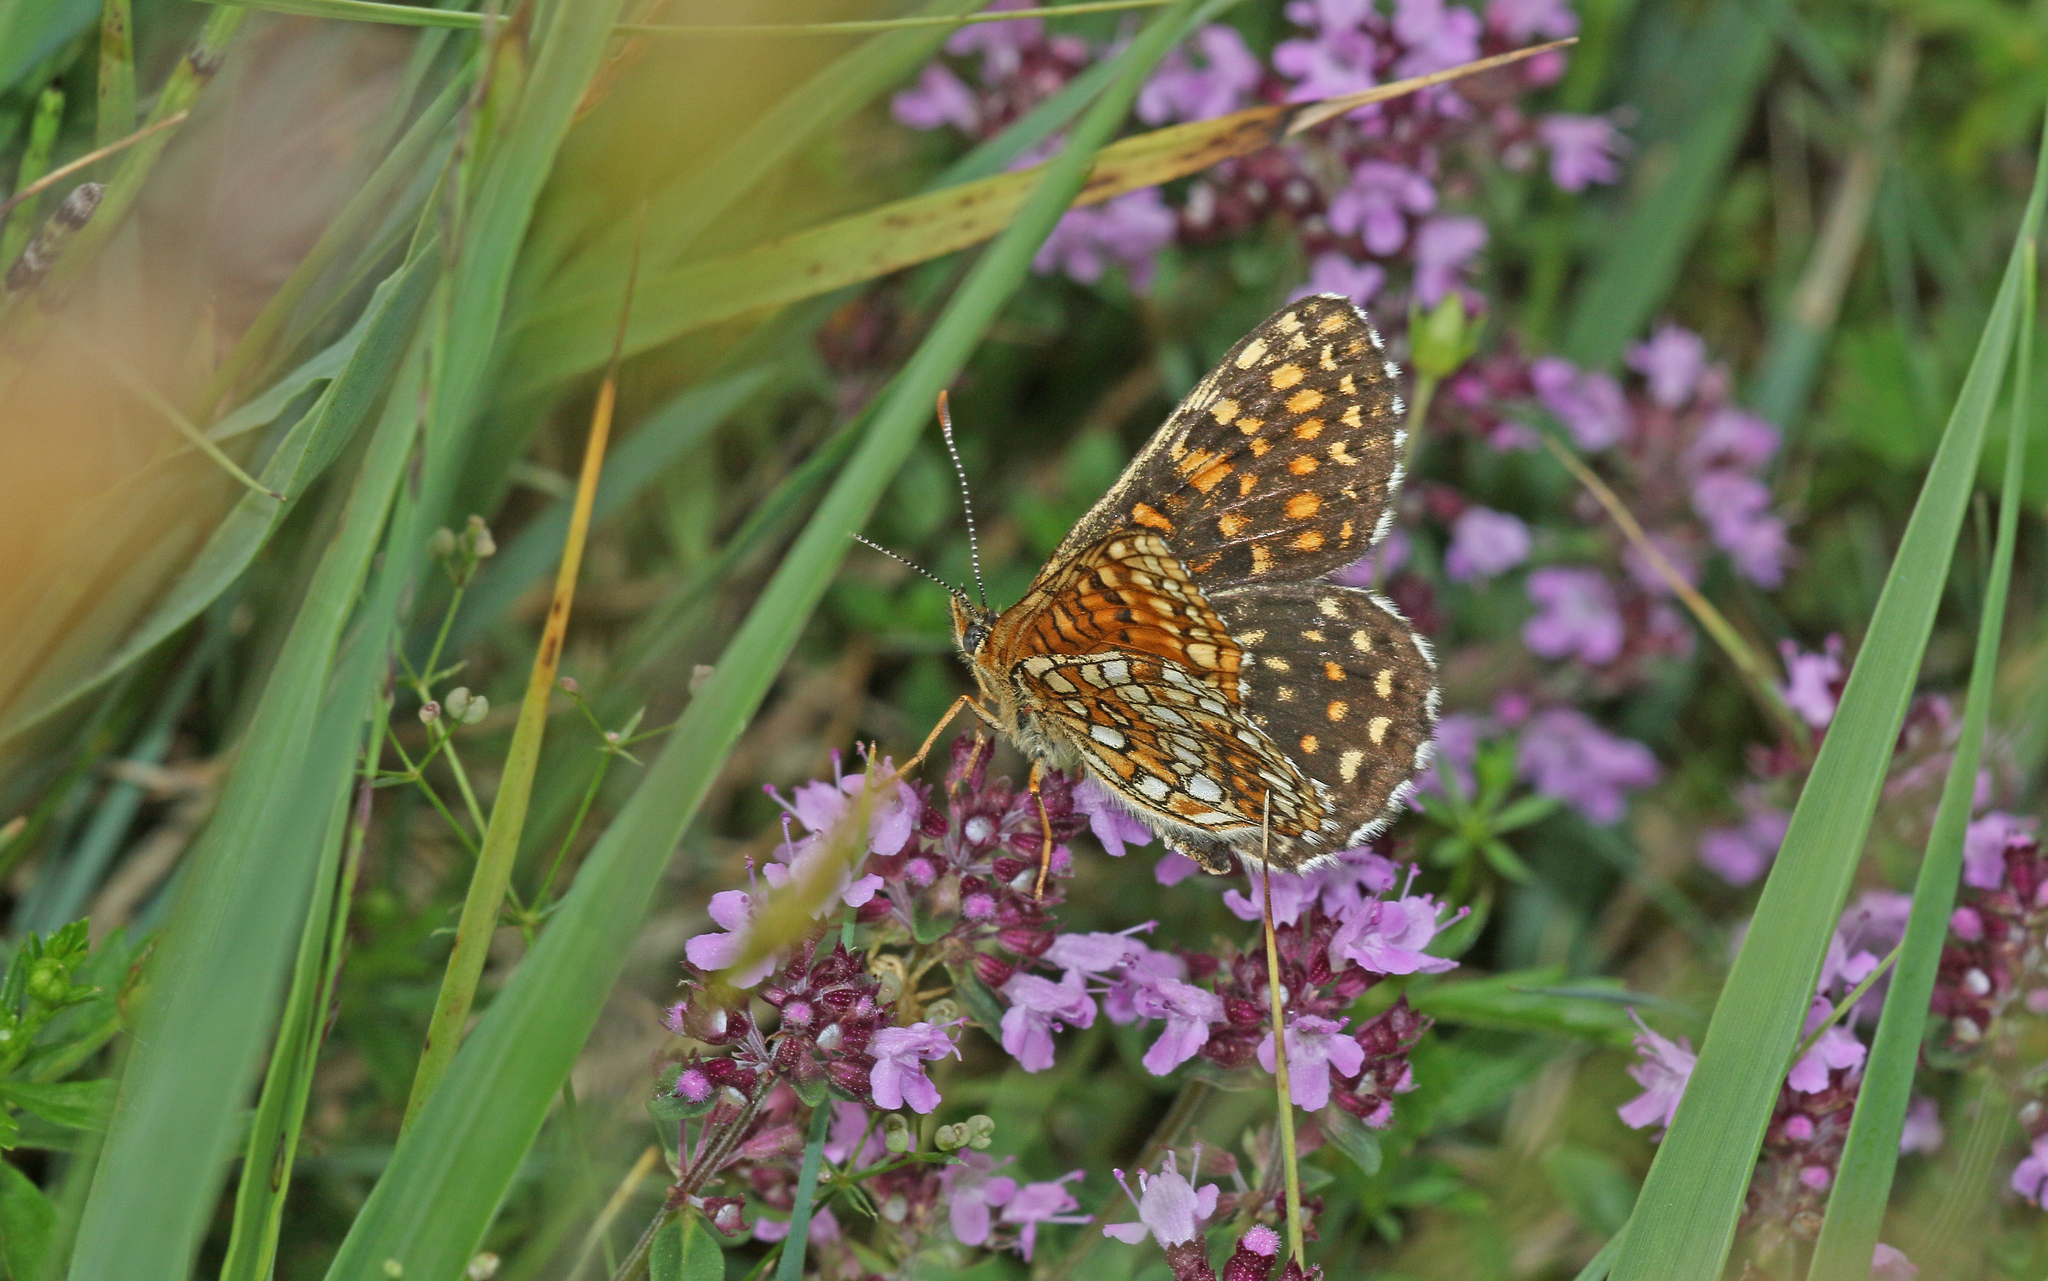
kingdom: Animalia
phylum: Arthropoda
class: Insecta
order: Lepidoptera
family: Nymphalidae
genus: Melitaea
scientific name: Melitaea diamina
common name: False heath fritillary
